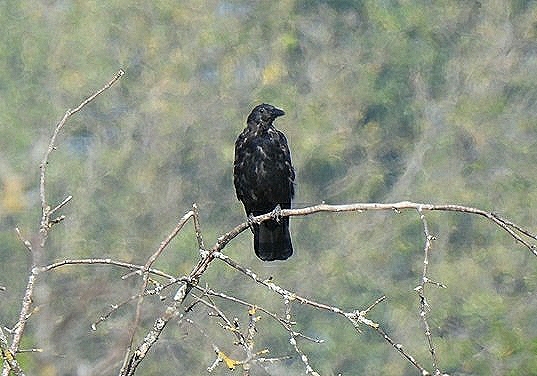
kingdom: Animalia
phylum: Chordata
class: Aves
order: Passeriformes
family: Corvidae
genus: Corvus
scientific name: Corvus corone
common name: Carrion crow
